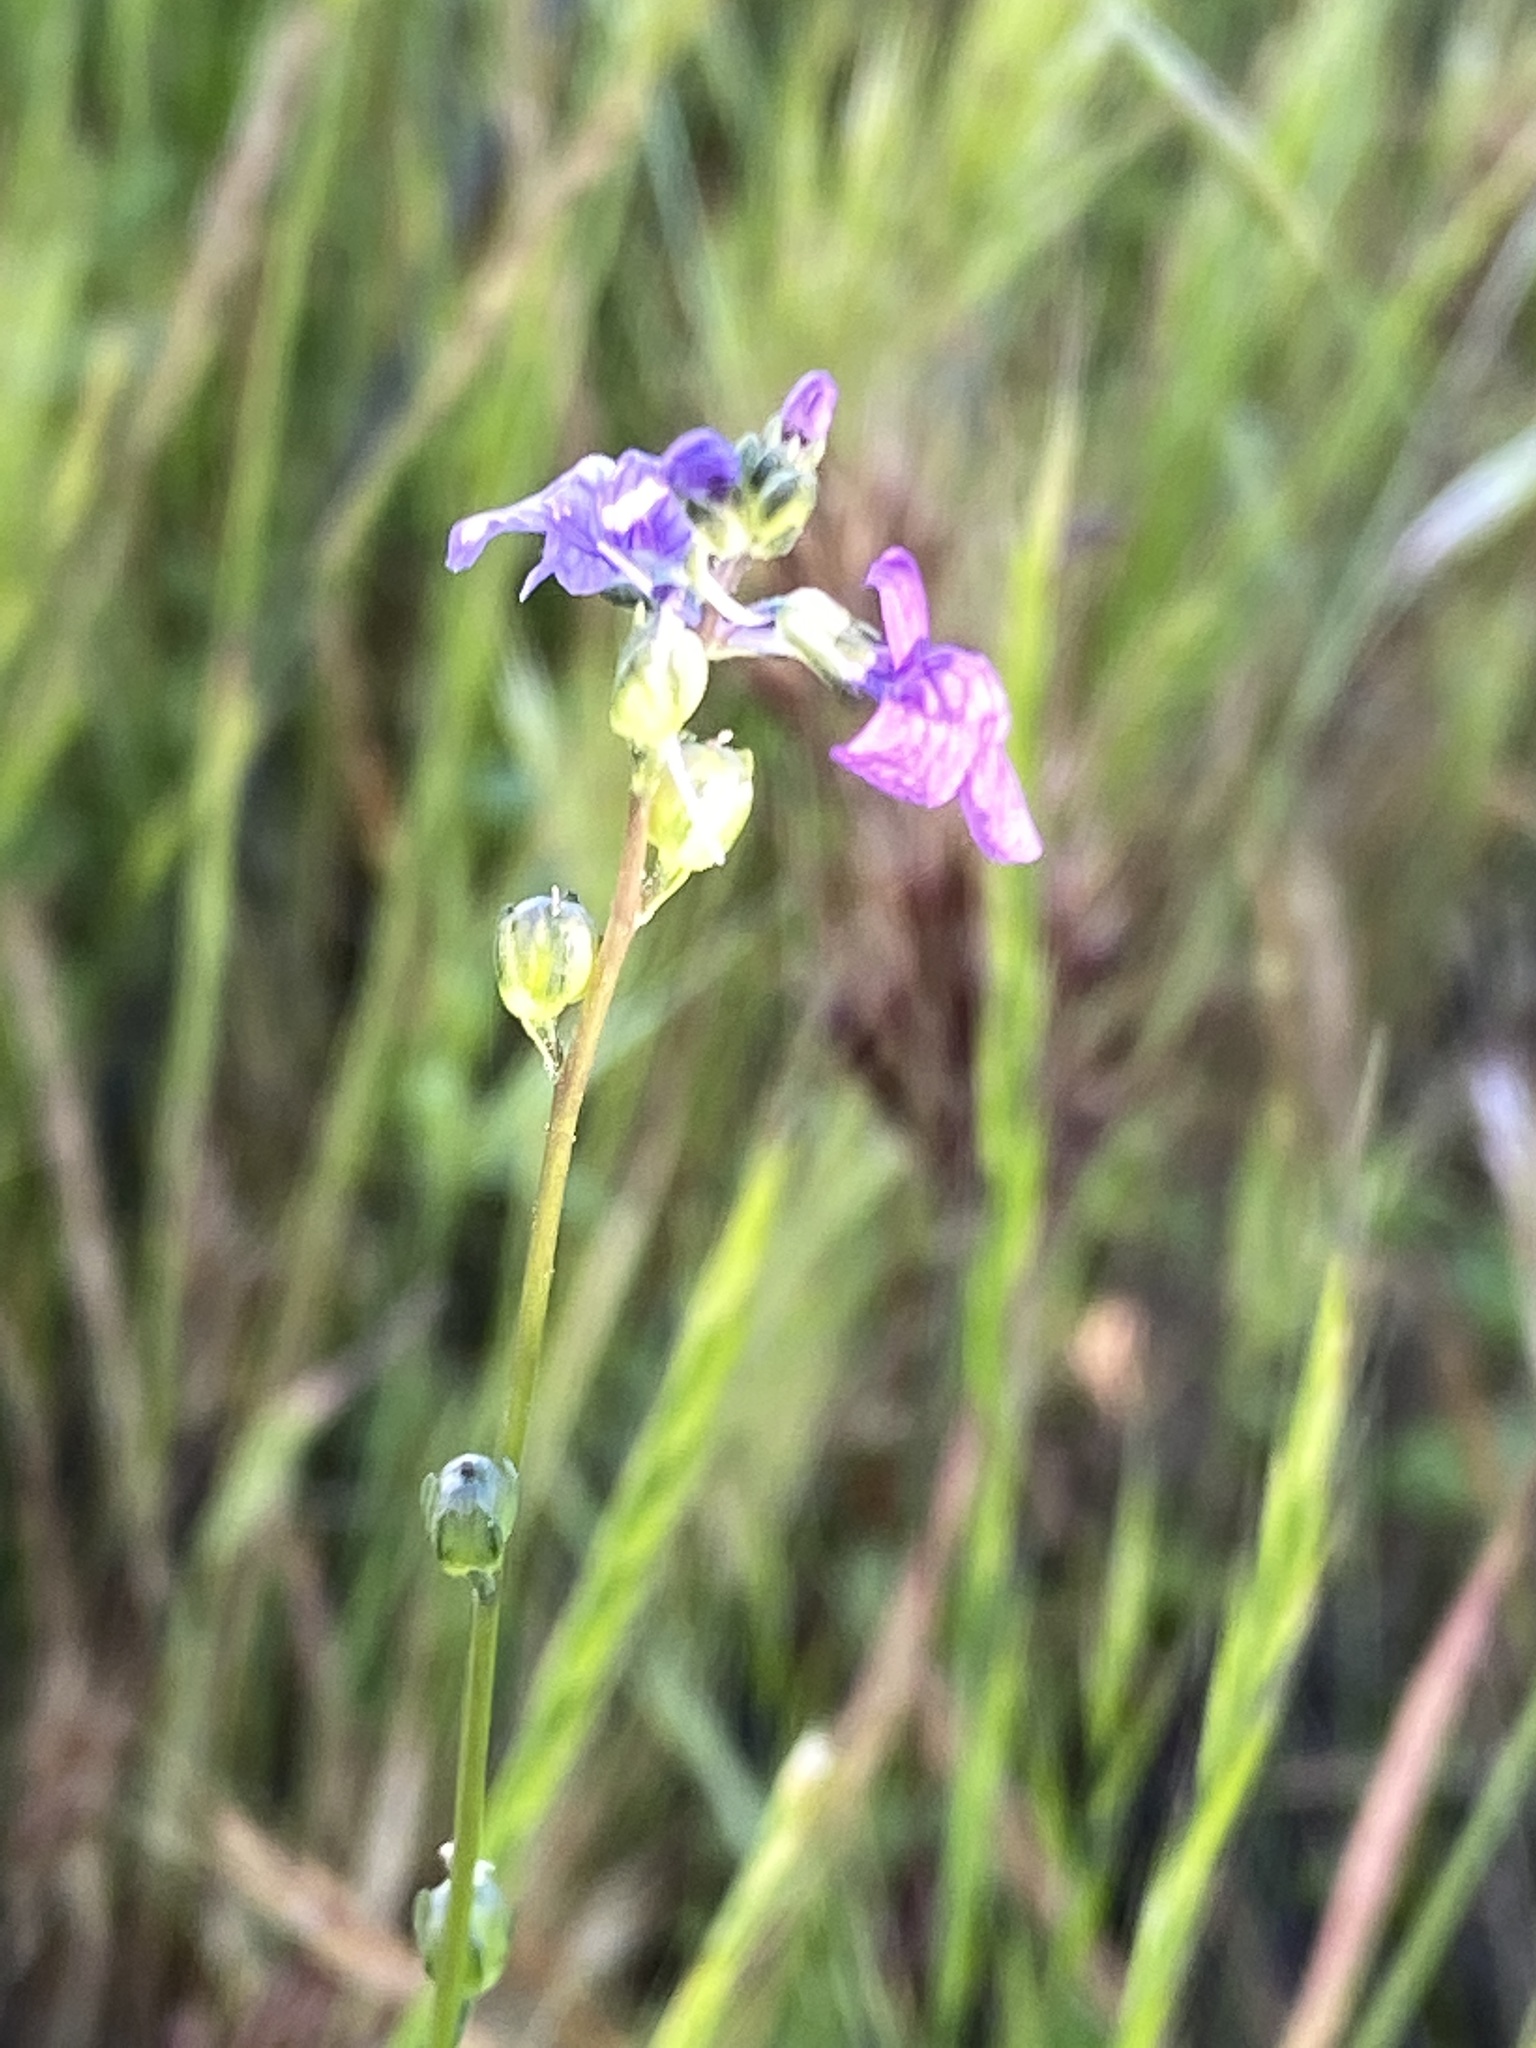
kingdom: Plantae
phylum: Tracheophyta
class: Magnoliopsida
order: Lamiales
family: Plantaginaceae
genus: Nuttallanthus
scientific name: Nuttallanthus texanus
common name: Texas toadflax
